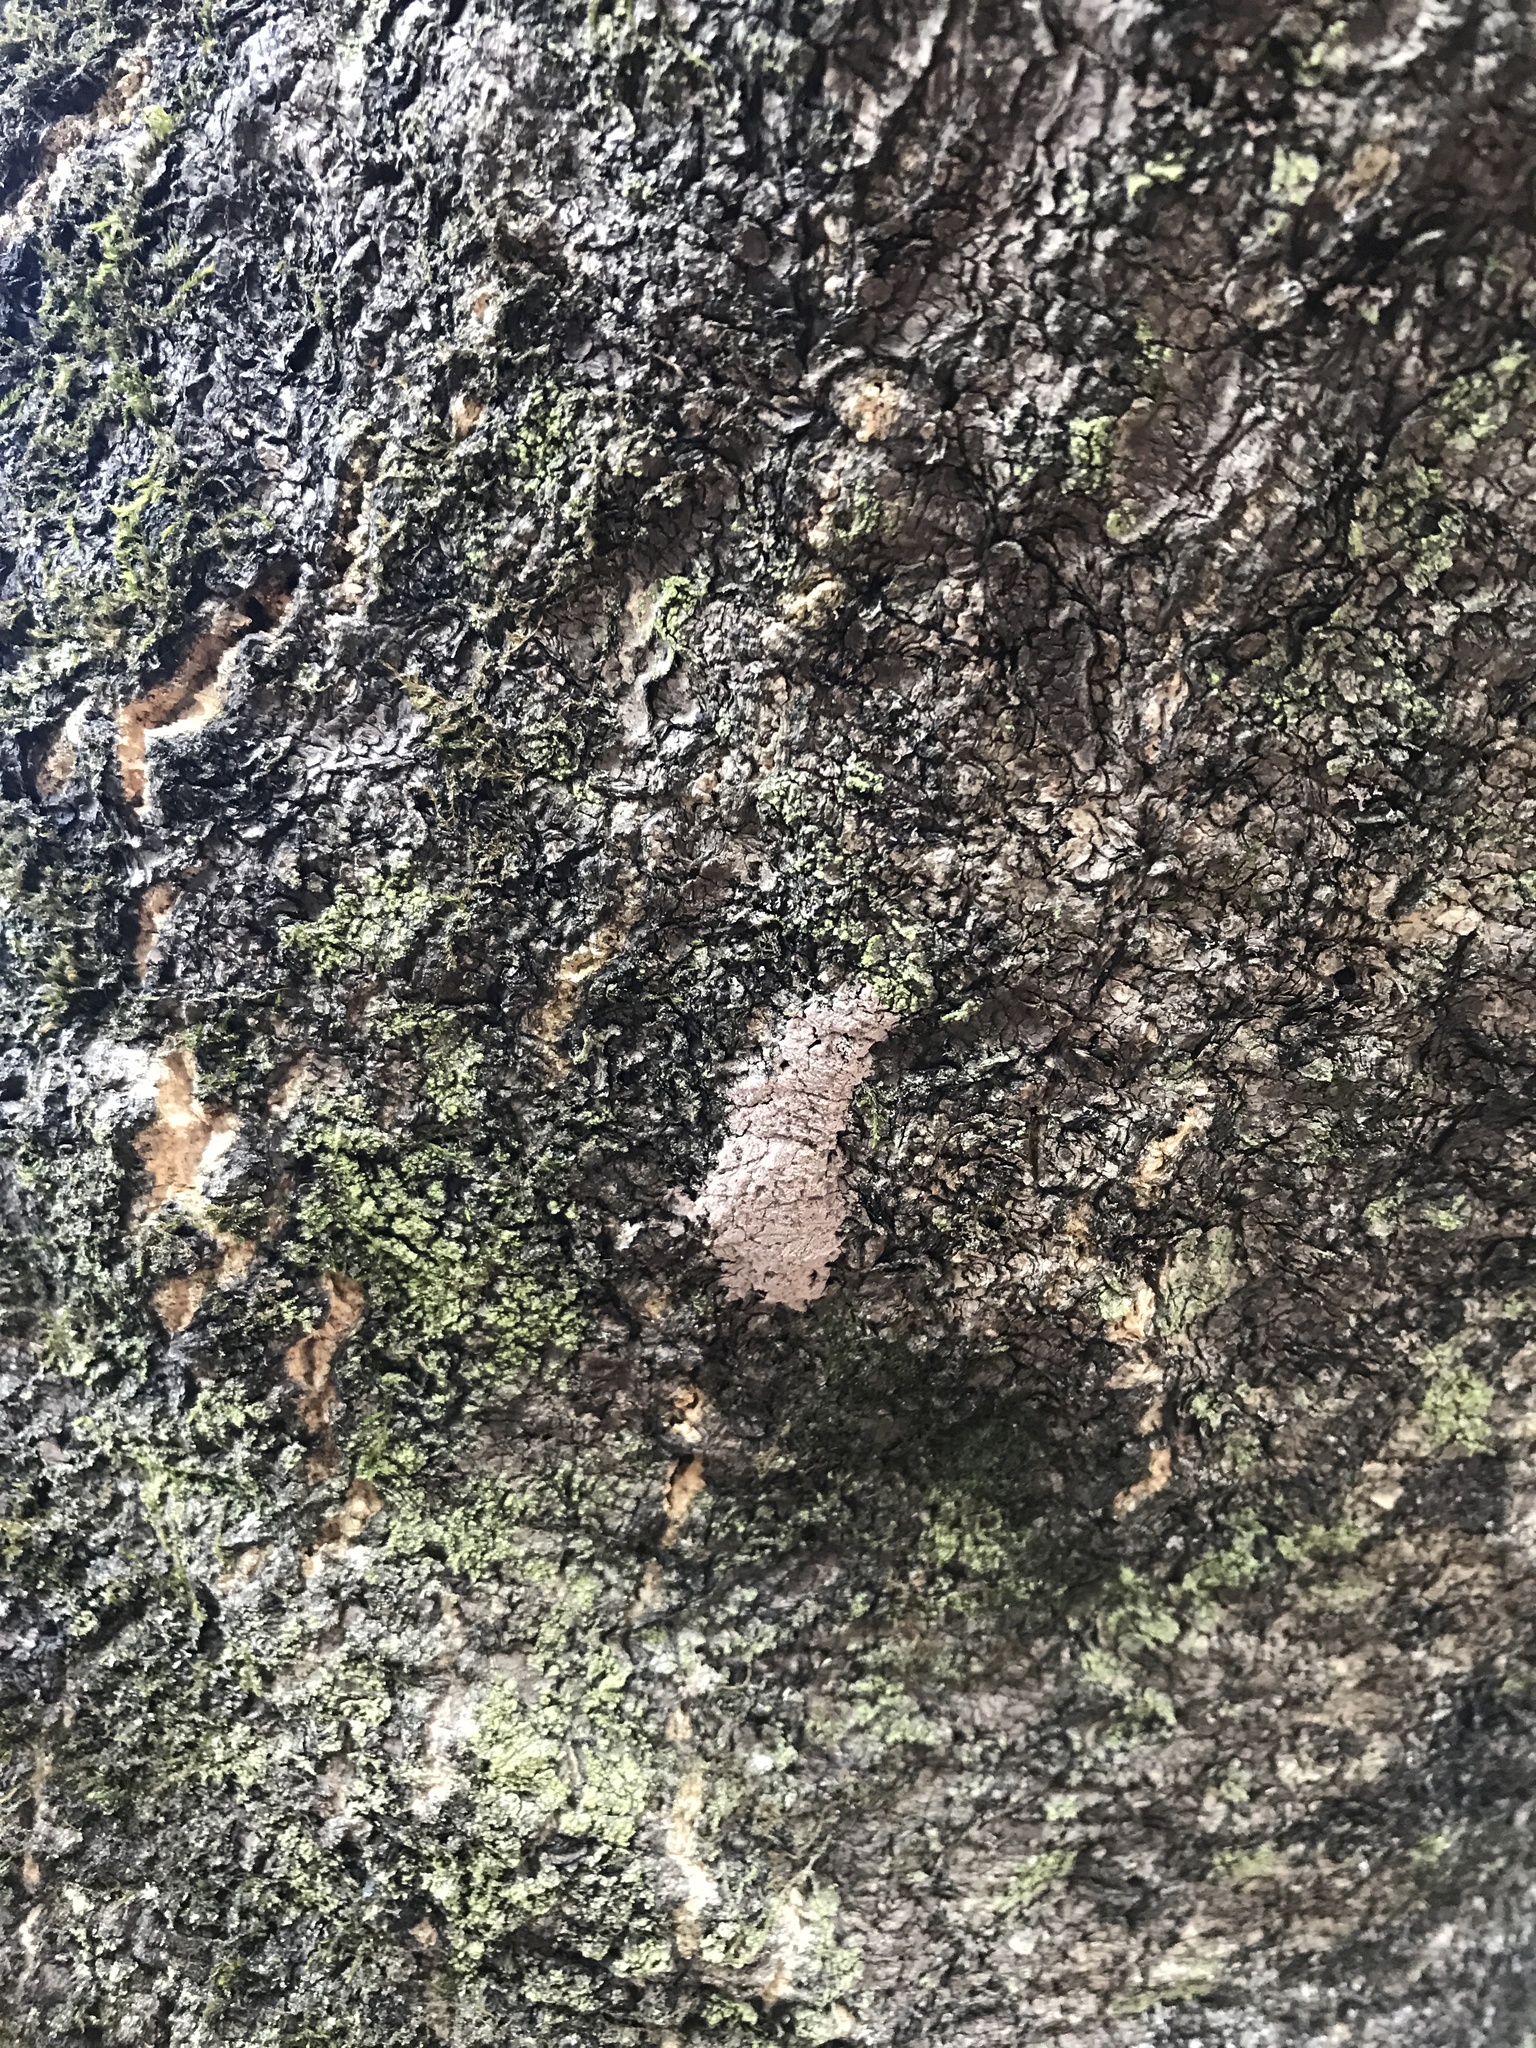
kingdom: Animalia
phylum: Arthropoda
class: Insecta
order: Hemiptera
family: Fulgoridae
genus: Lycorma
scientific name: Lycorma delicatula
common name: Spotted lanternfly
